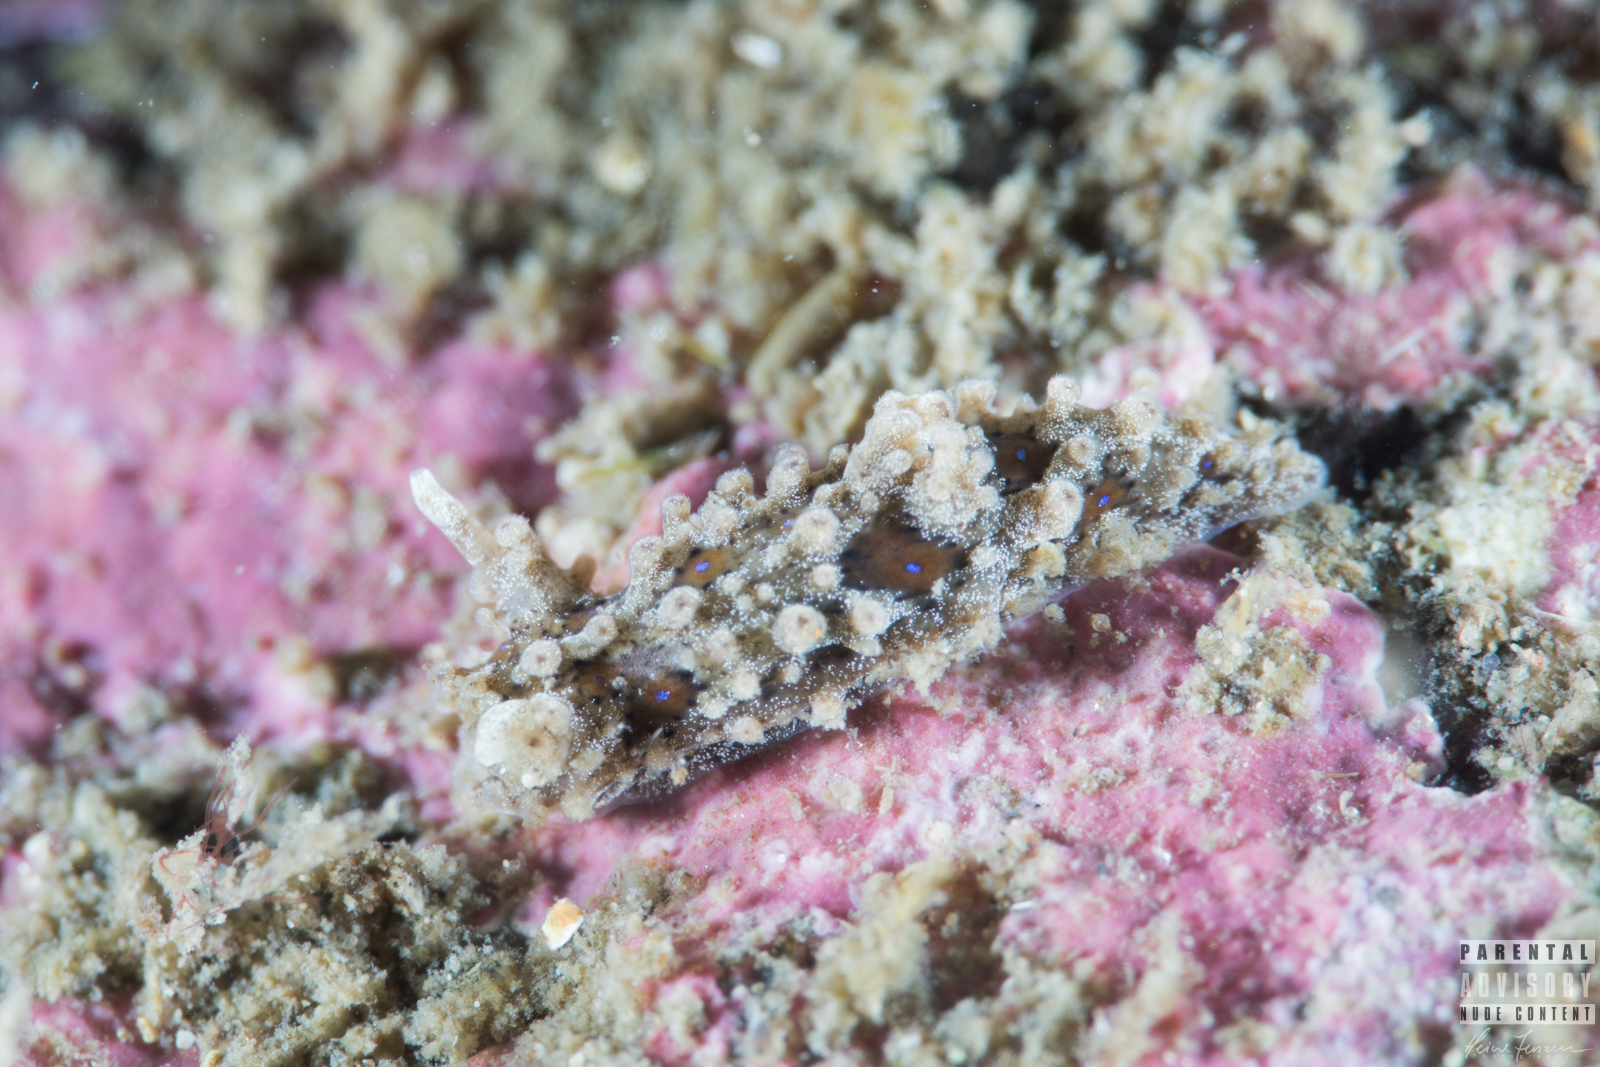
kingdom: Animalia
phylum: Mollusca
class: Gastropoda
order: Nudibranchia
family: Aegiridae
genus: Aegires
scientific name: Aegires punctilucens
